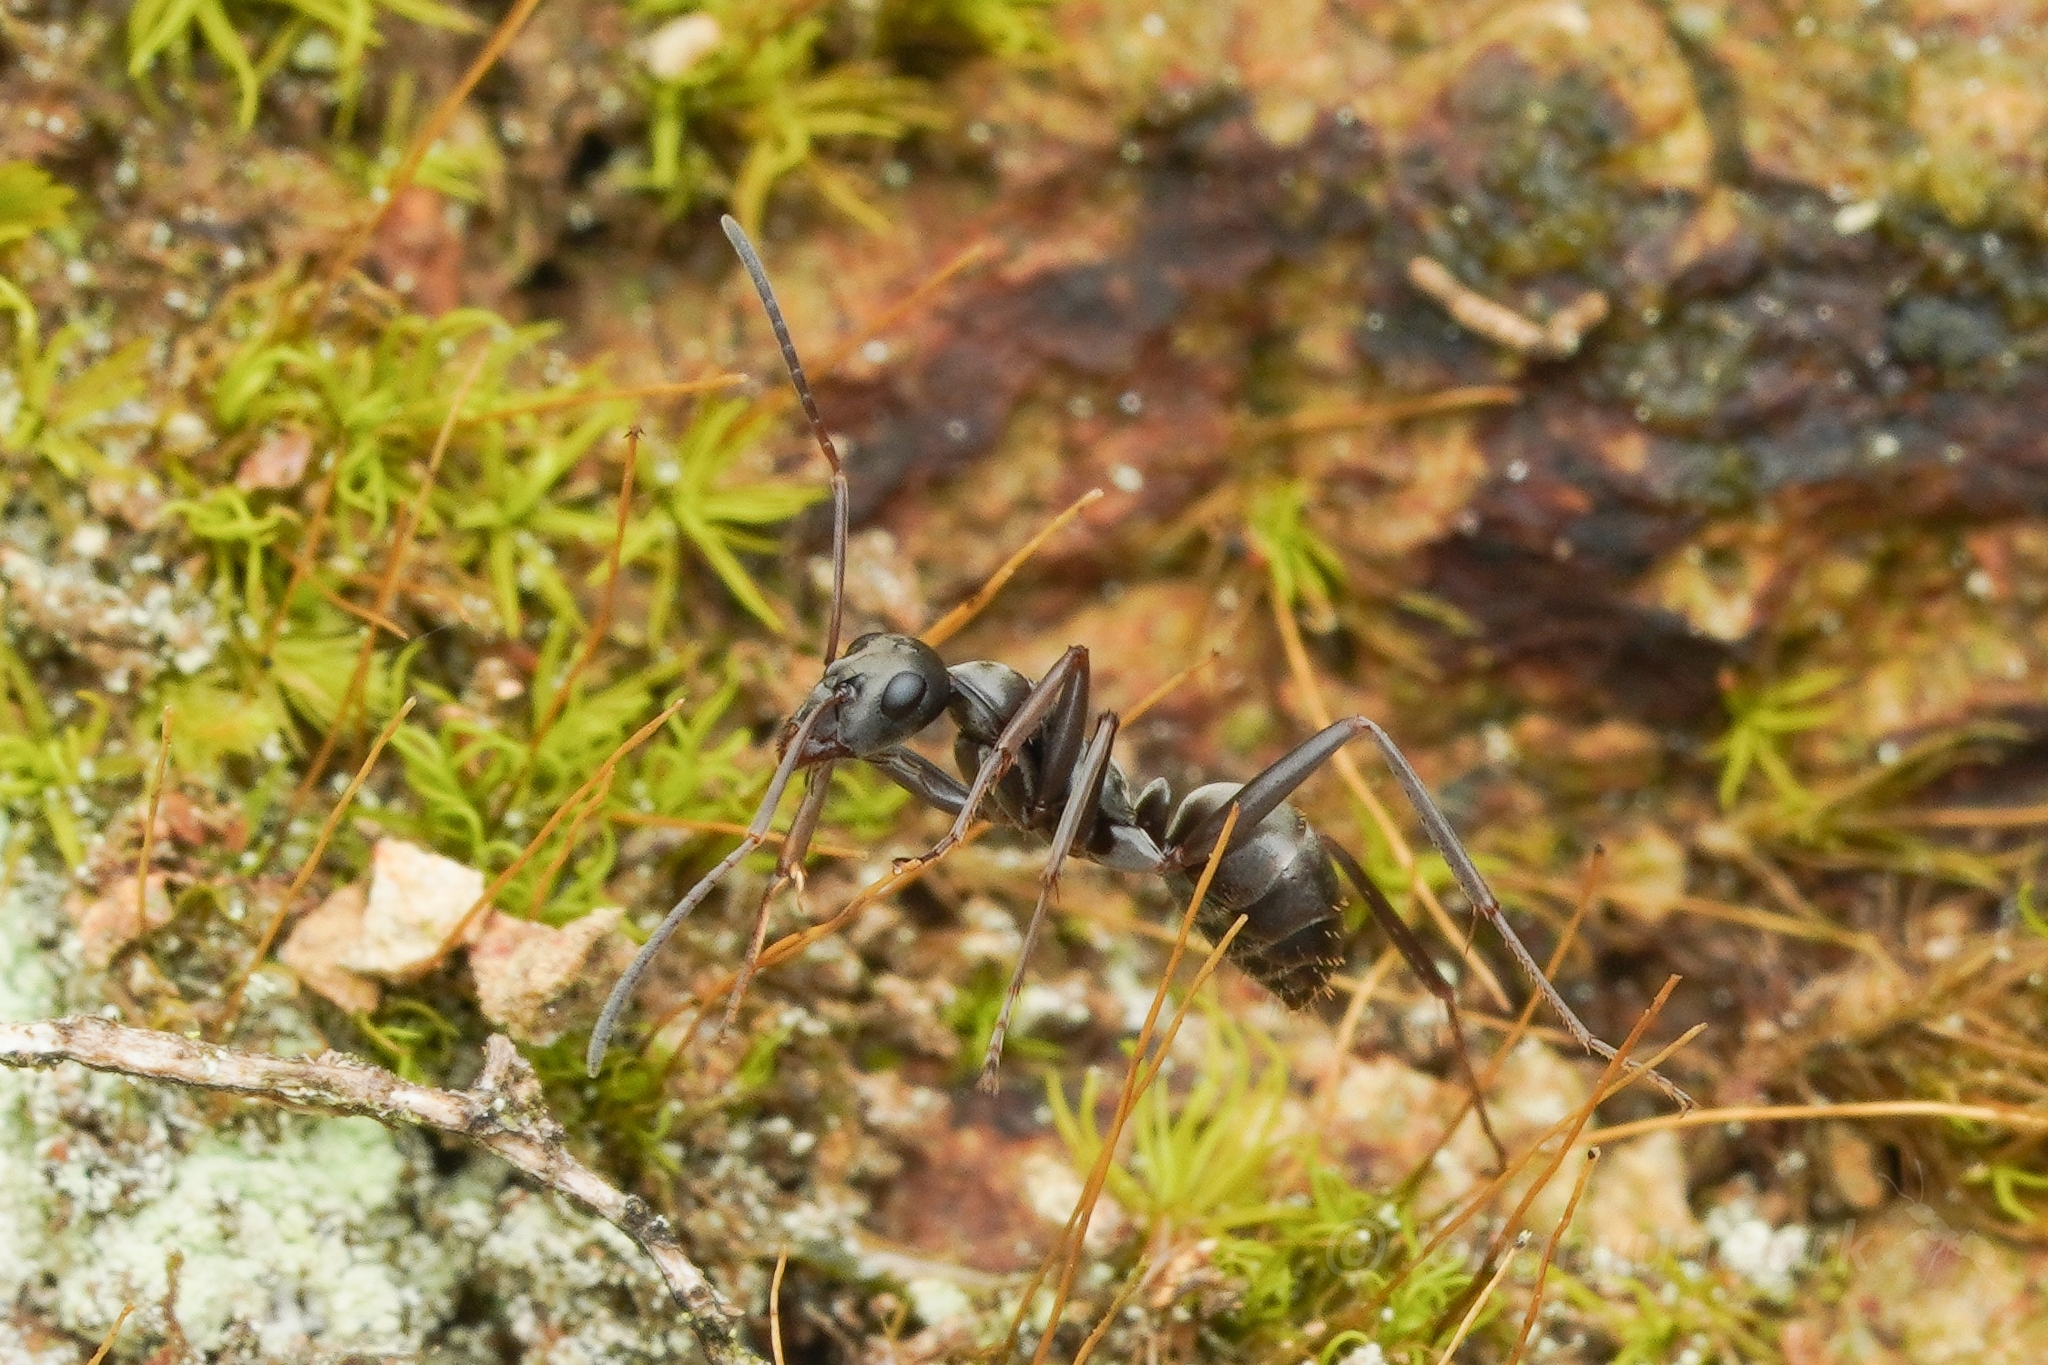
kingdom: Animalia
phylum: Arthropoda
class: Insecta
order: Hymenoptera
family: Formicidae
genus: Formica
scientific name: Formica hayashi
